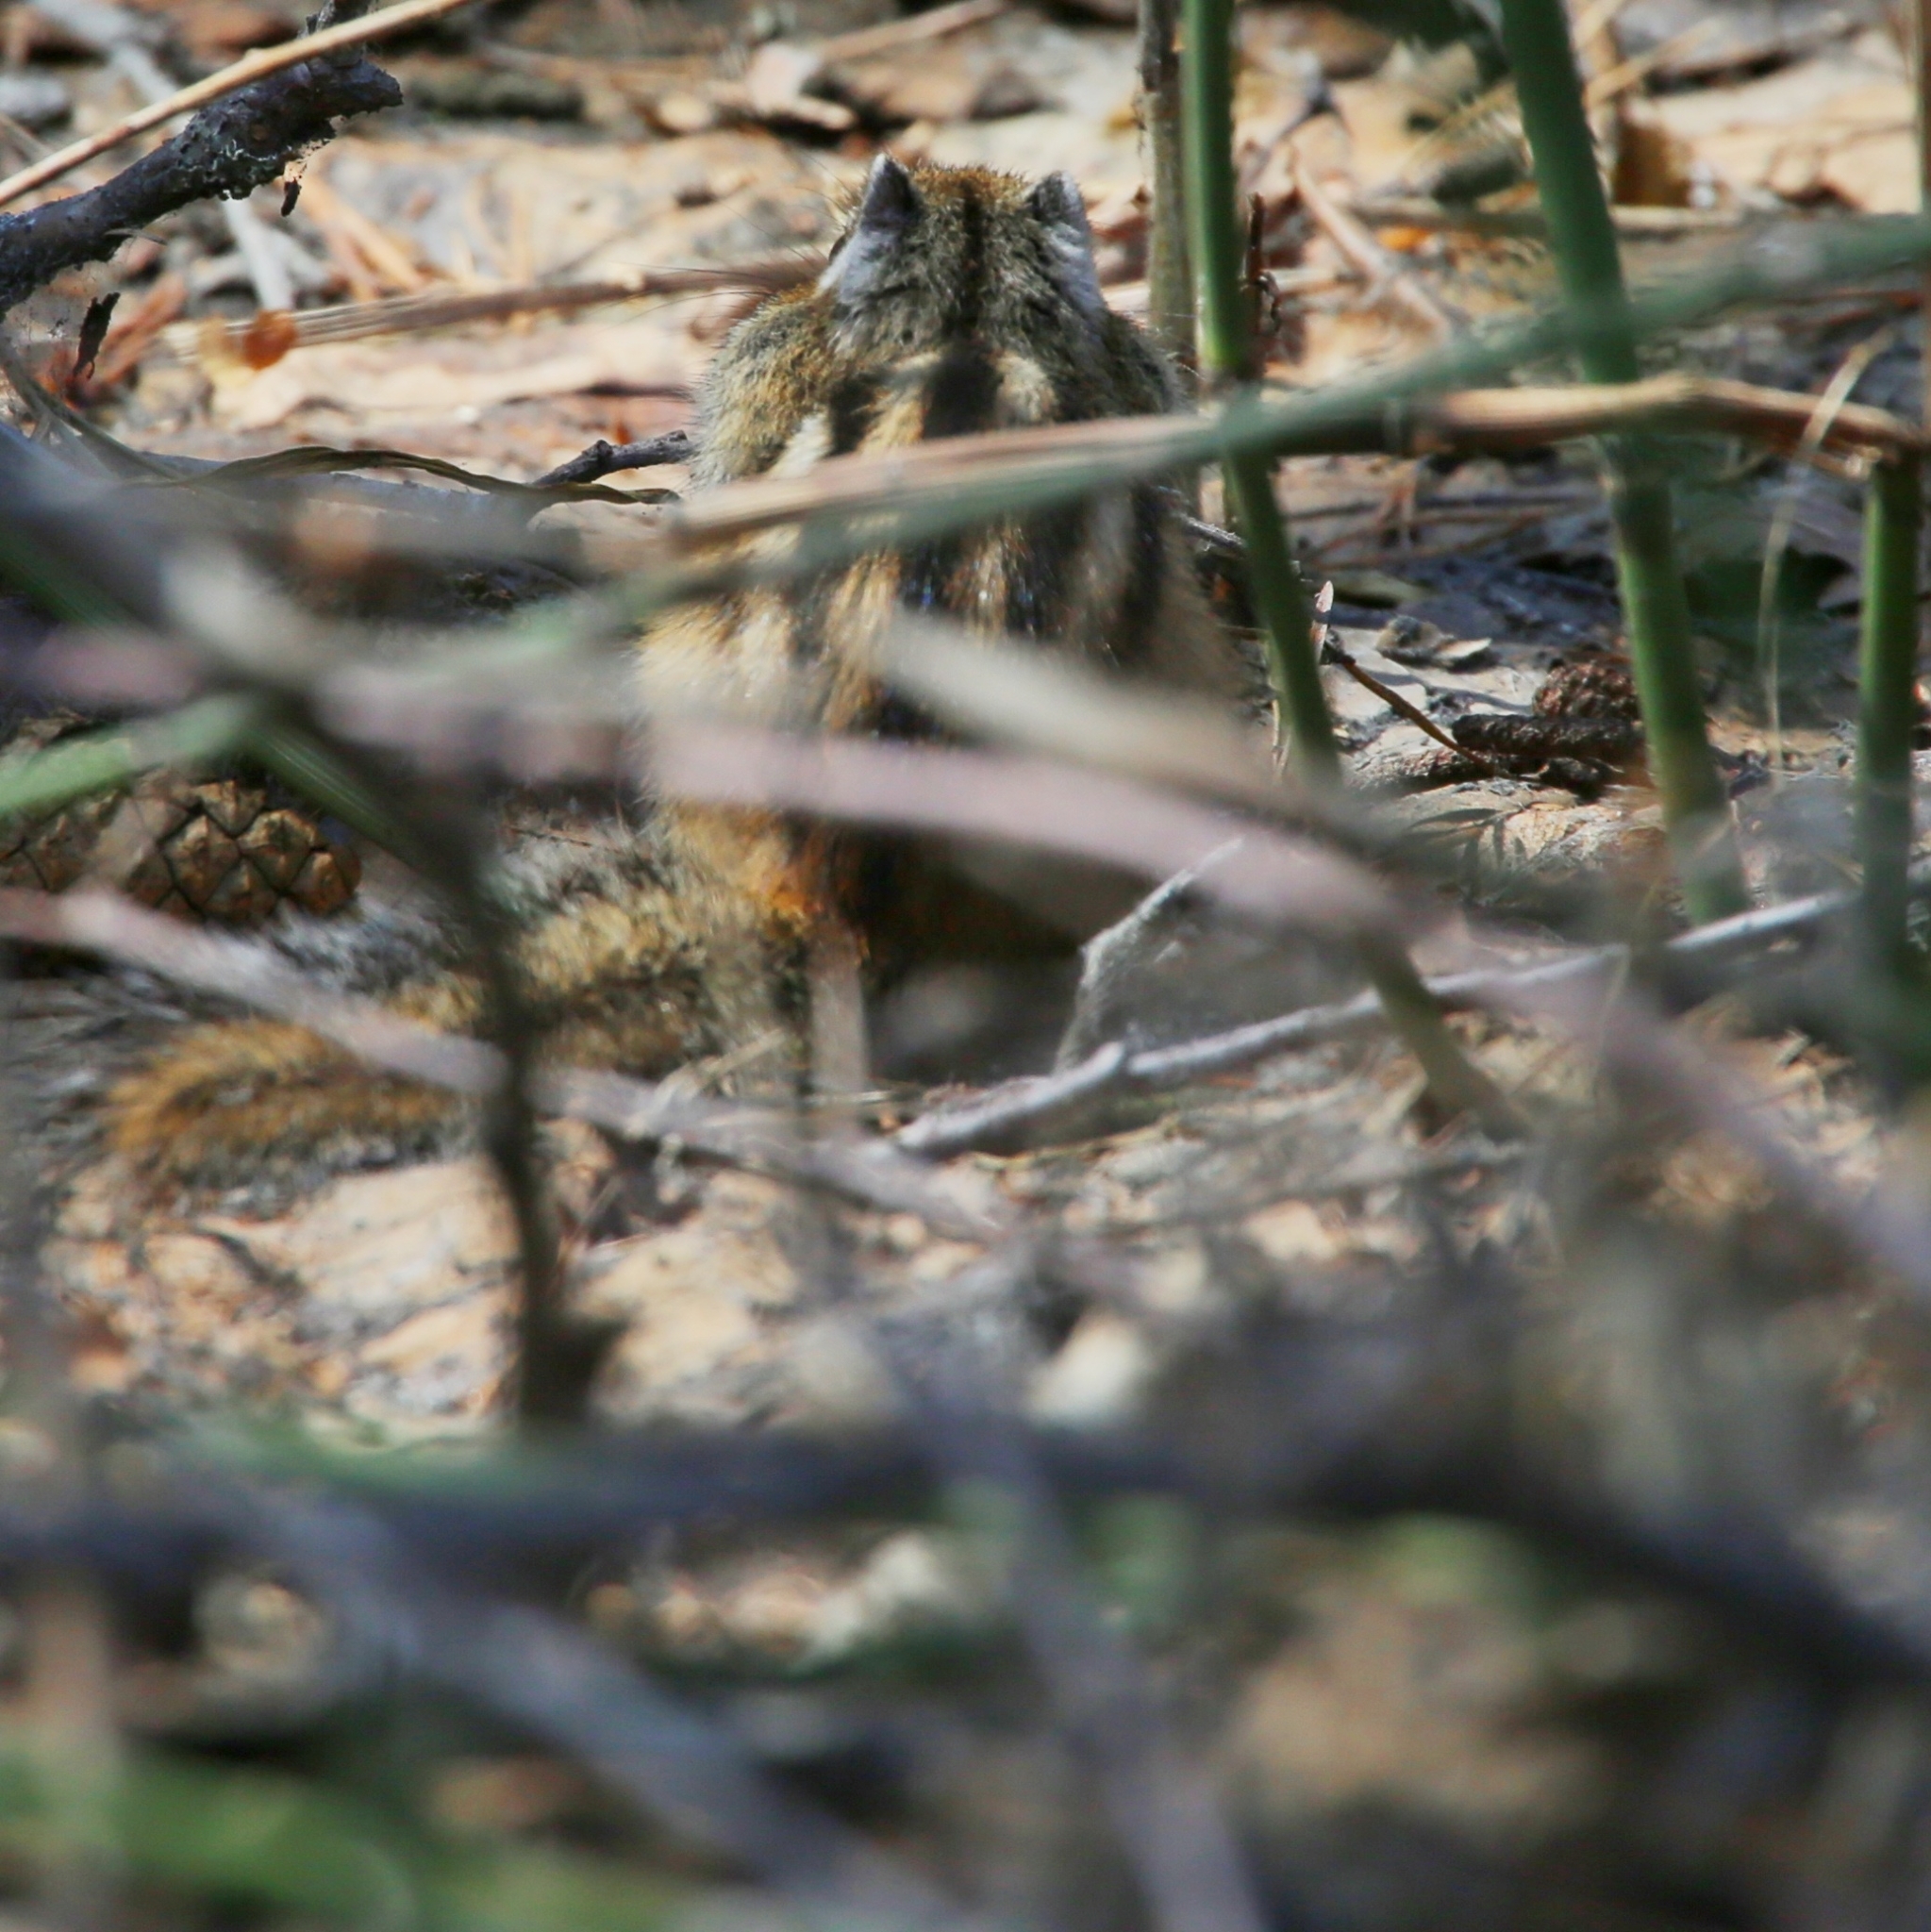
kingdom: Animalia
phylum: Chordata
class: Mammalia
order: Rodentia
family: Sciuridae
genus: Tamias
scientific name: Tamias sibiricus
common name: Siberian chipmunk
